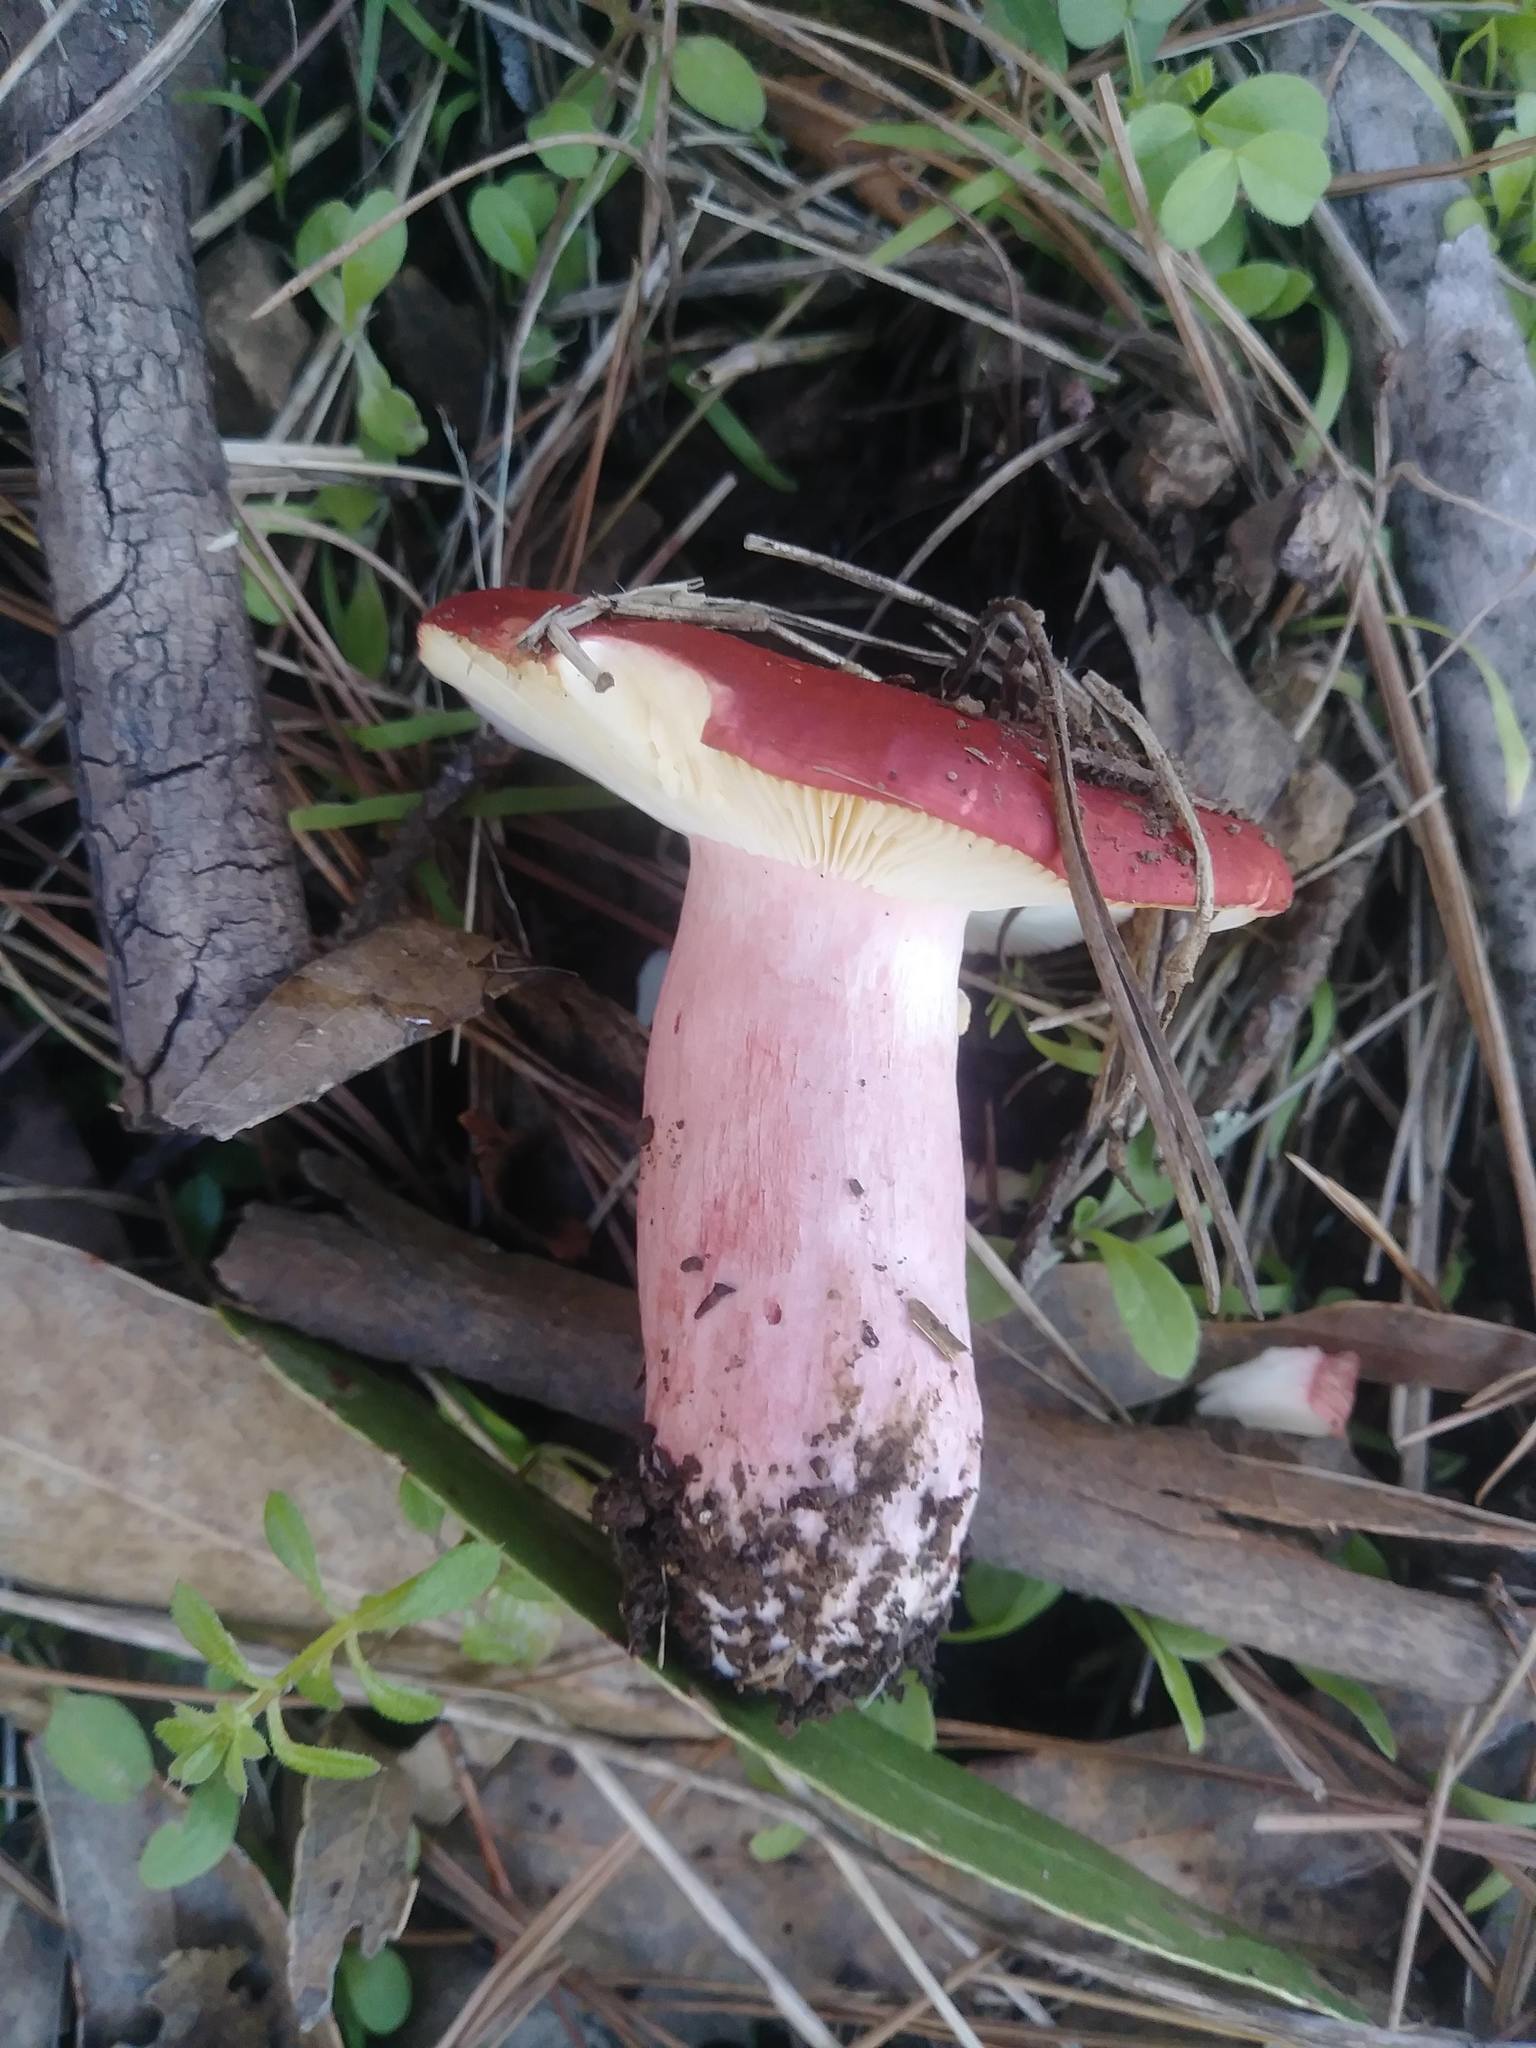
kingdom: Fungi
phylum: Basidiomycota
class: Agaricomycetes
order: Russulales
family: Russulaceae
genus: Russula
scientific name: Russula rhodocephala
